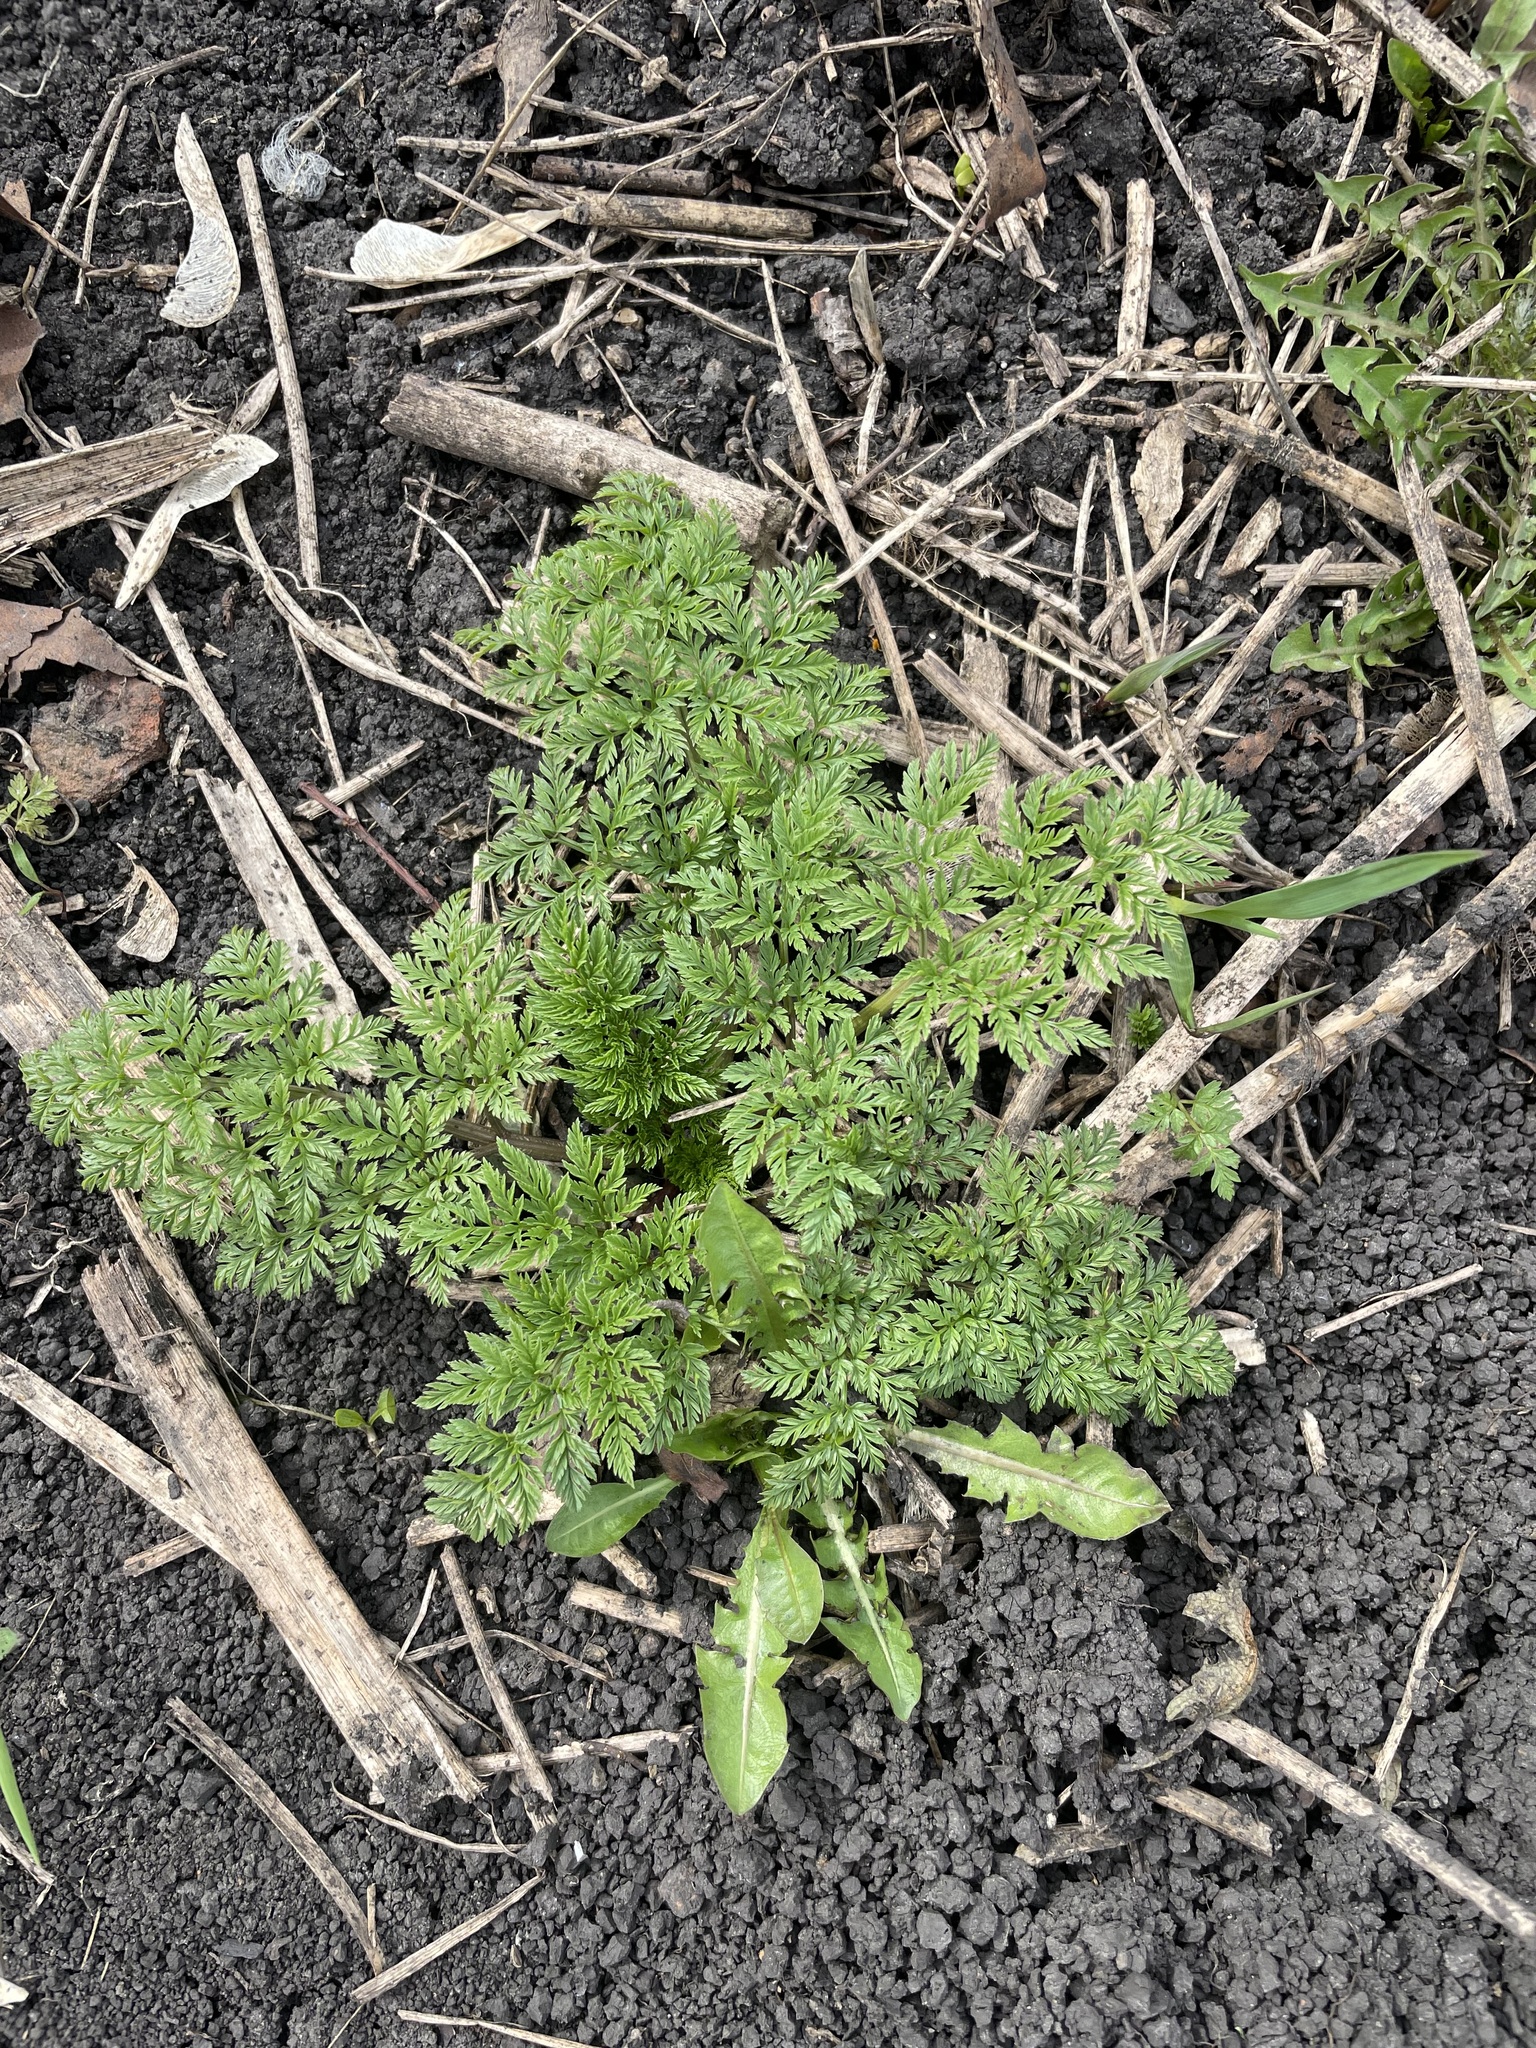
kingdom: Plantae
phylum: Tracheophyta
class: Magnoliopsida
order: Apiales
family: Apiaceae
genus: Conium
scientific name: Conium maculatum
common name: Hemlock
